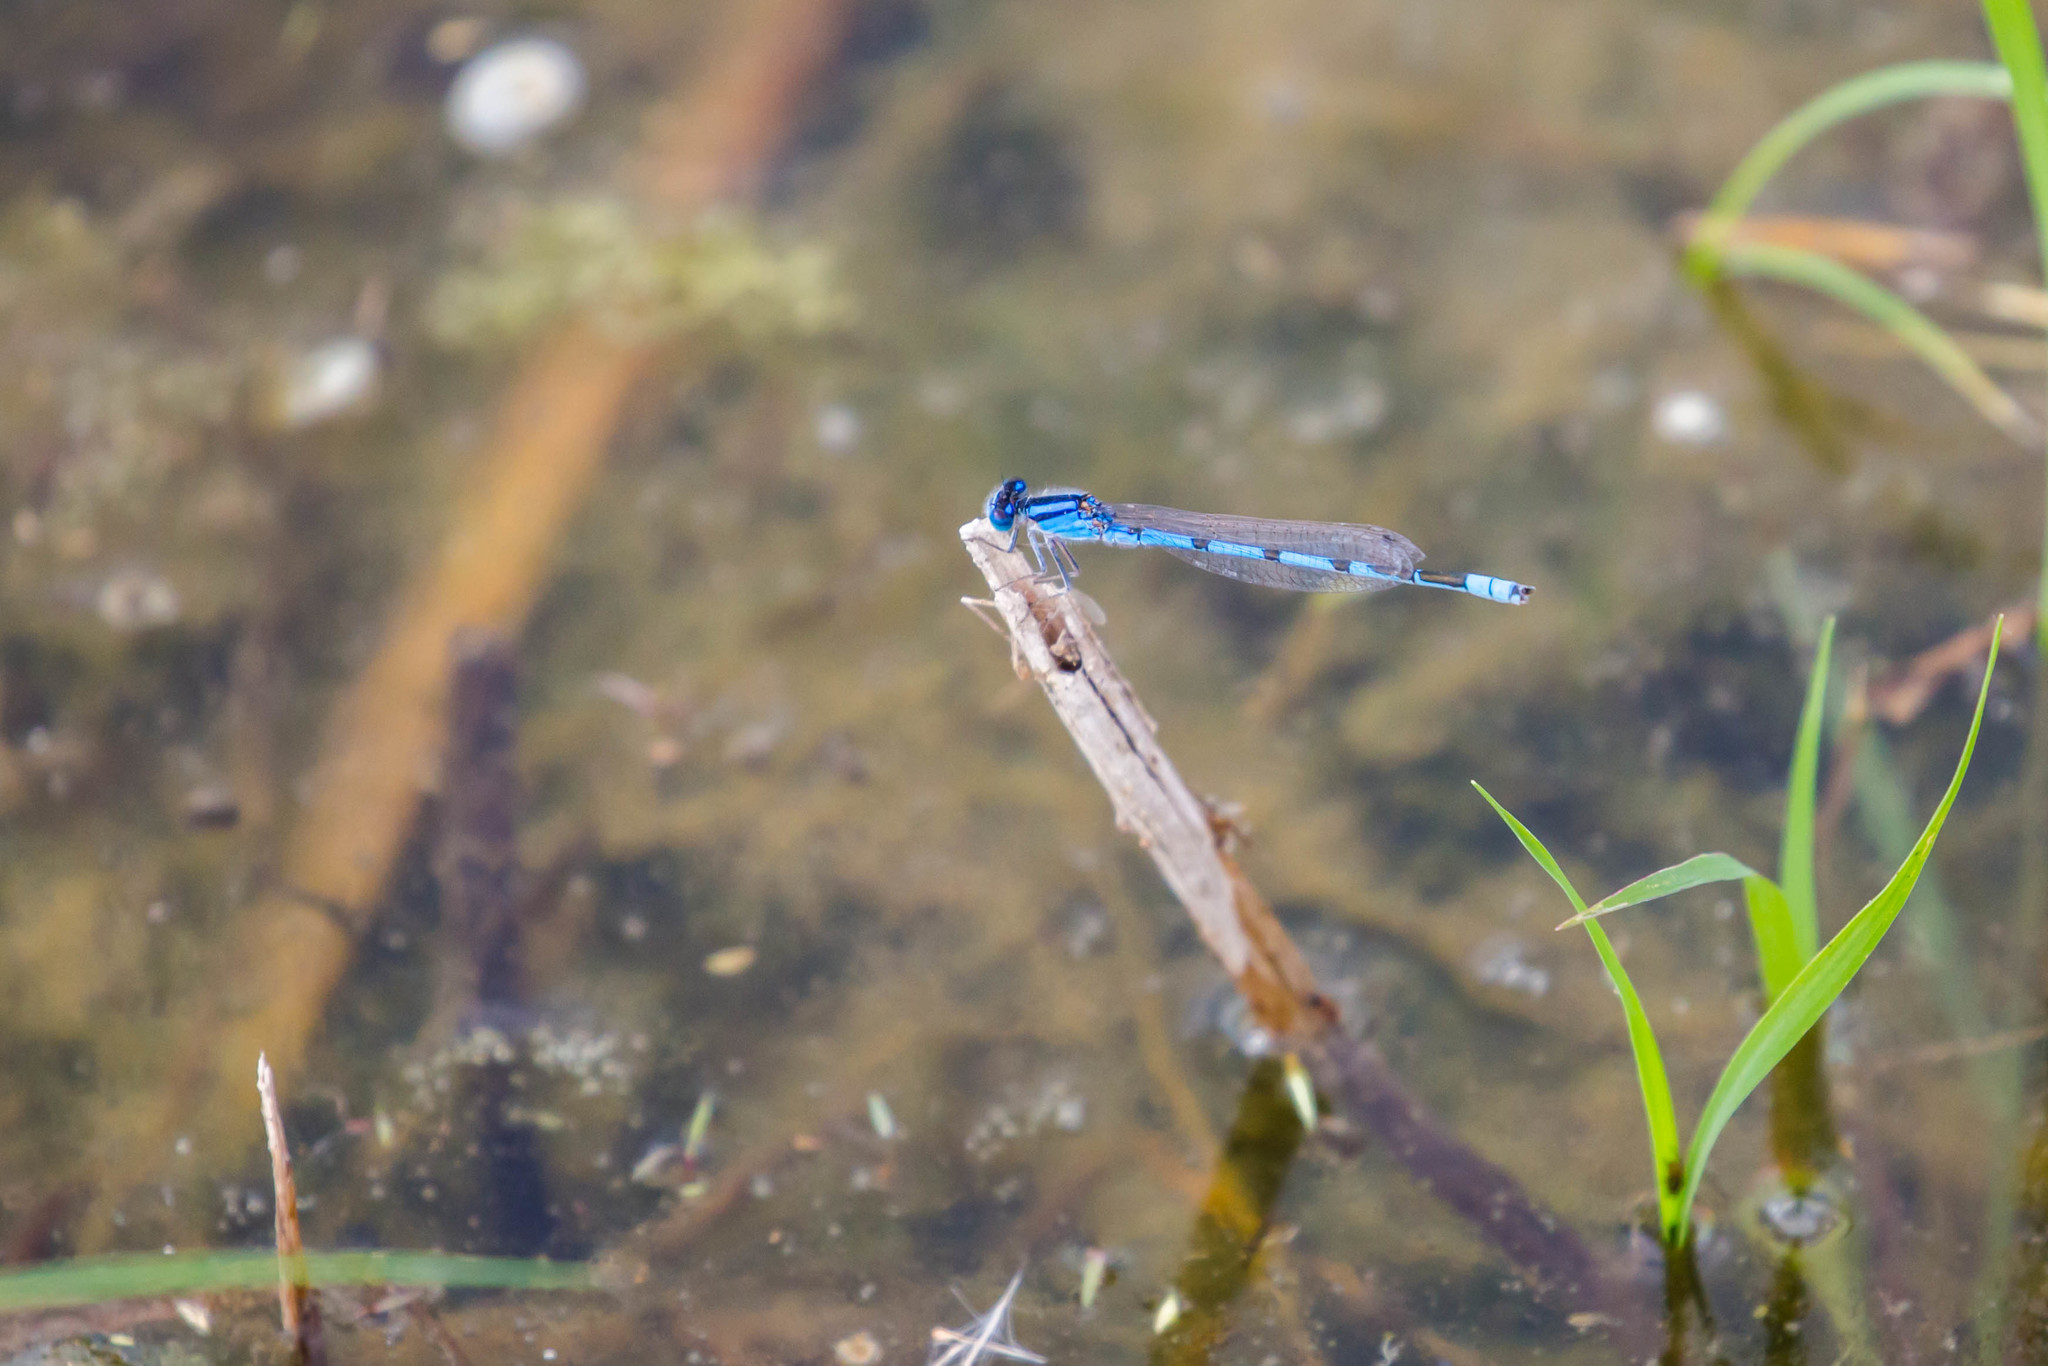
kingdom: Animalia
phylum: Arthropoda
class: Insecta
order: Odonata
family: Coenagrionidae
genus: Enallagma
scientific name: Enallagma civile
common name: Damselfly
